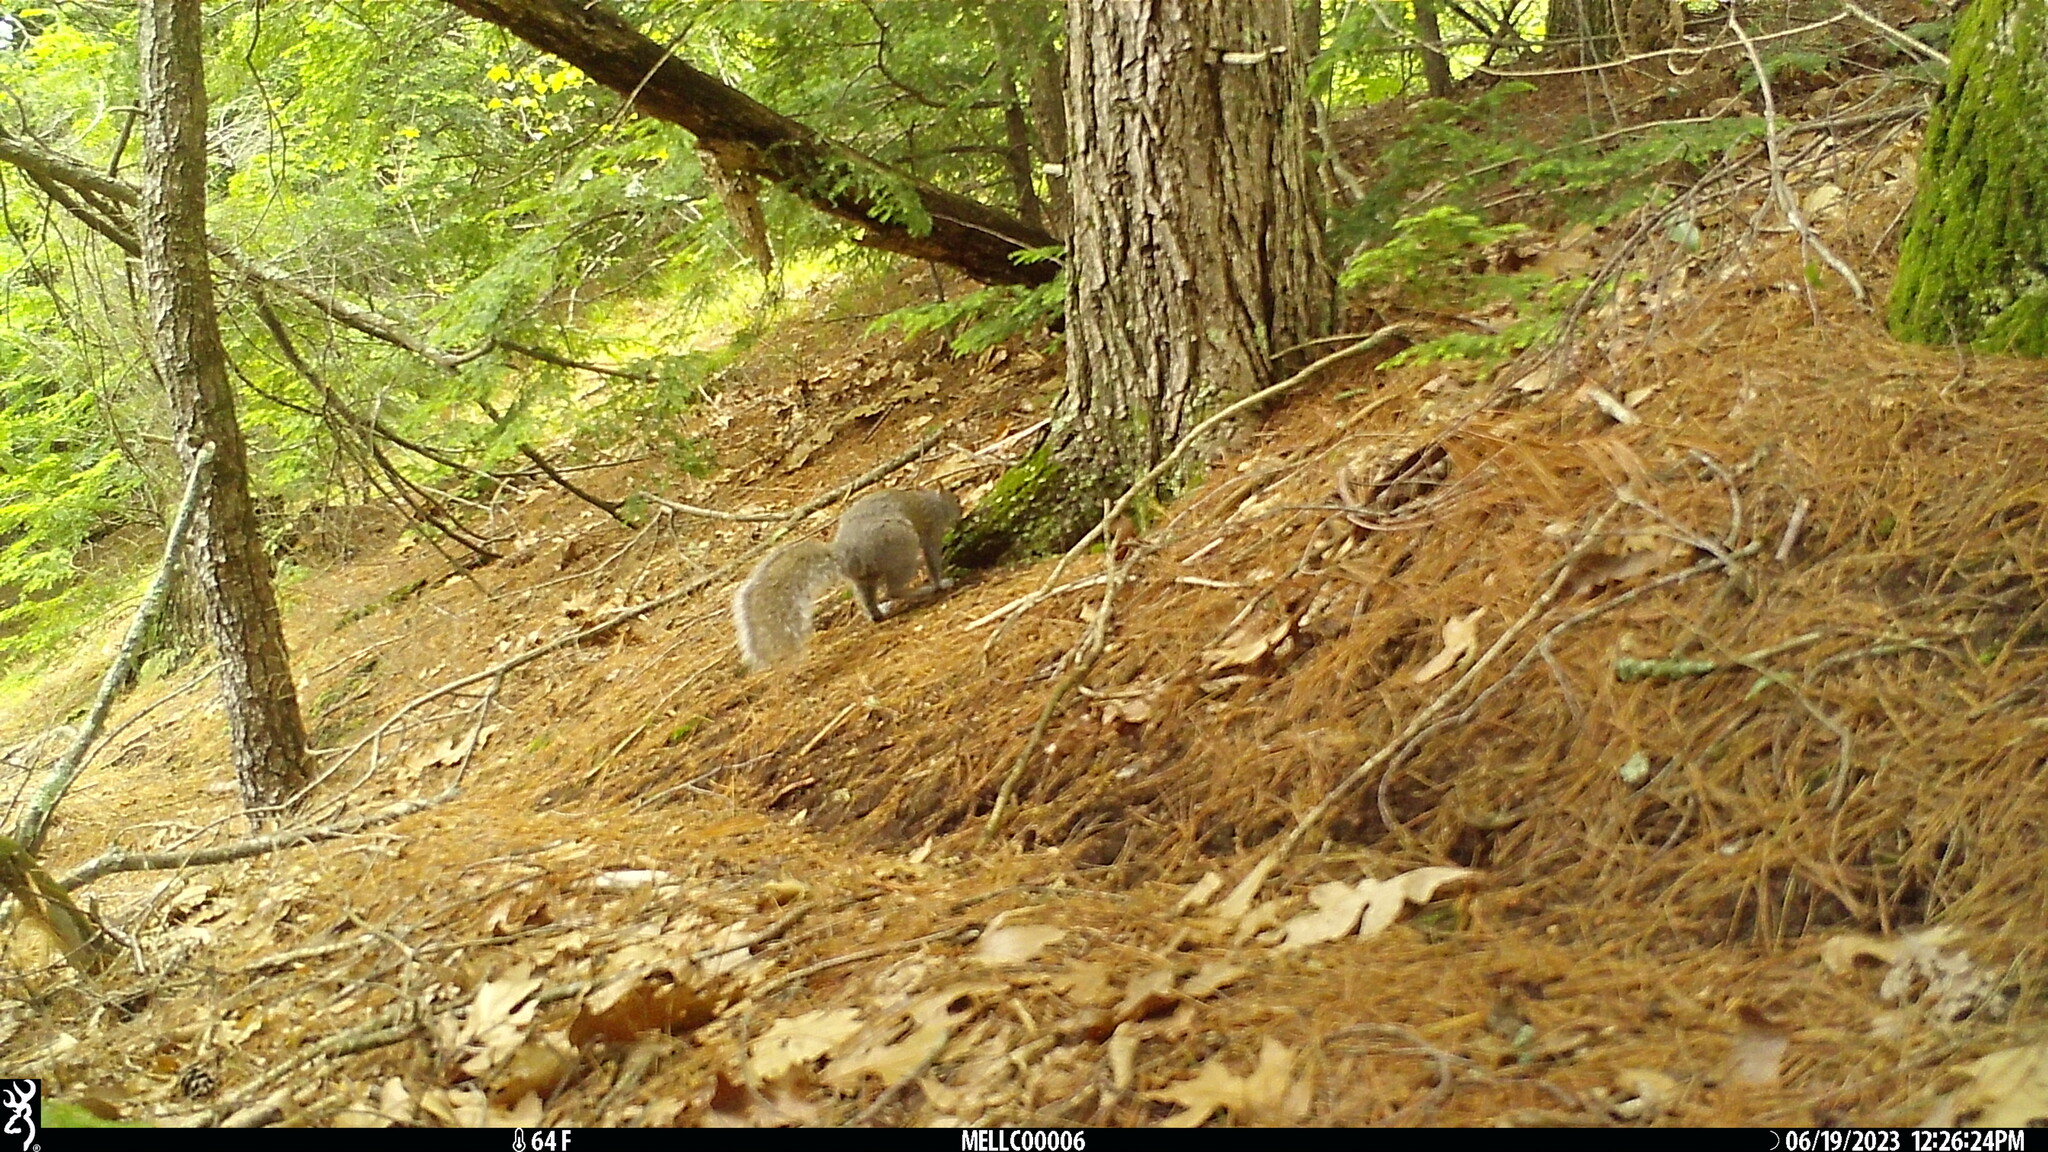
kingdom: Animalia
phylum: Chordata
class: Mammalia
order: Rodentia
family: Sciuridae
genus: Sciurus
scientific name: Sciurus carolinensis
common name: Eastern gray squirrel
